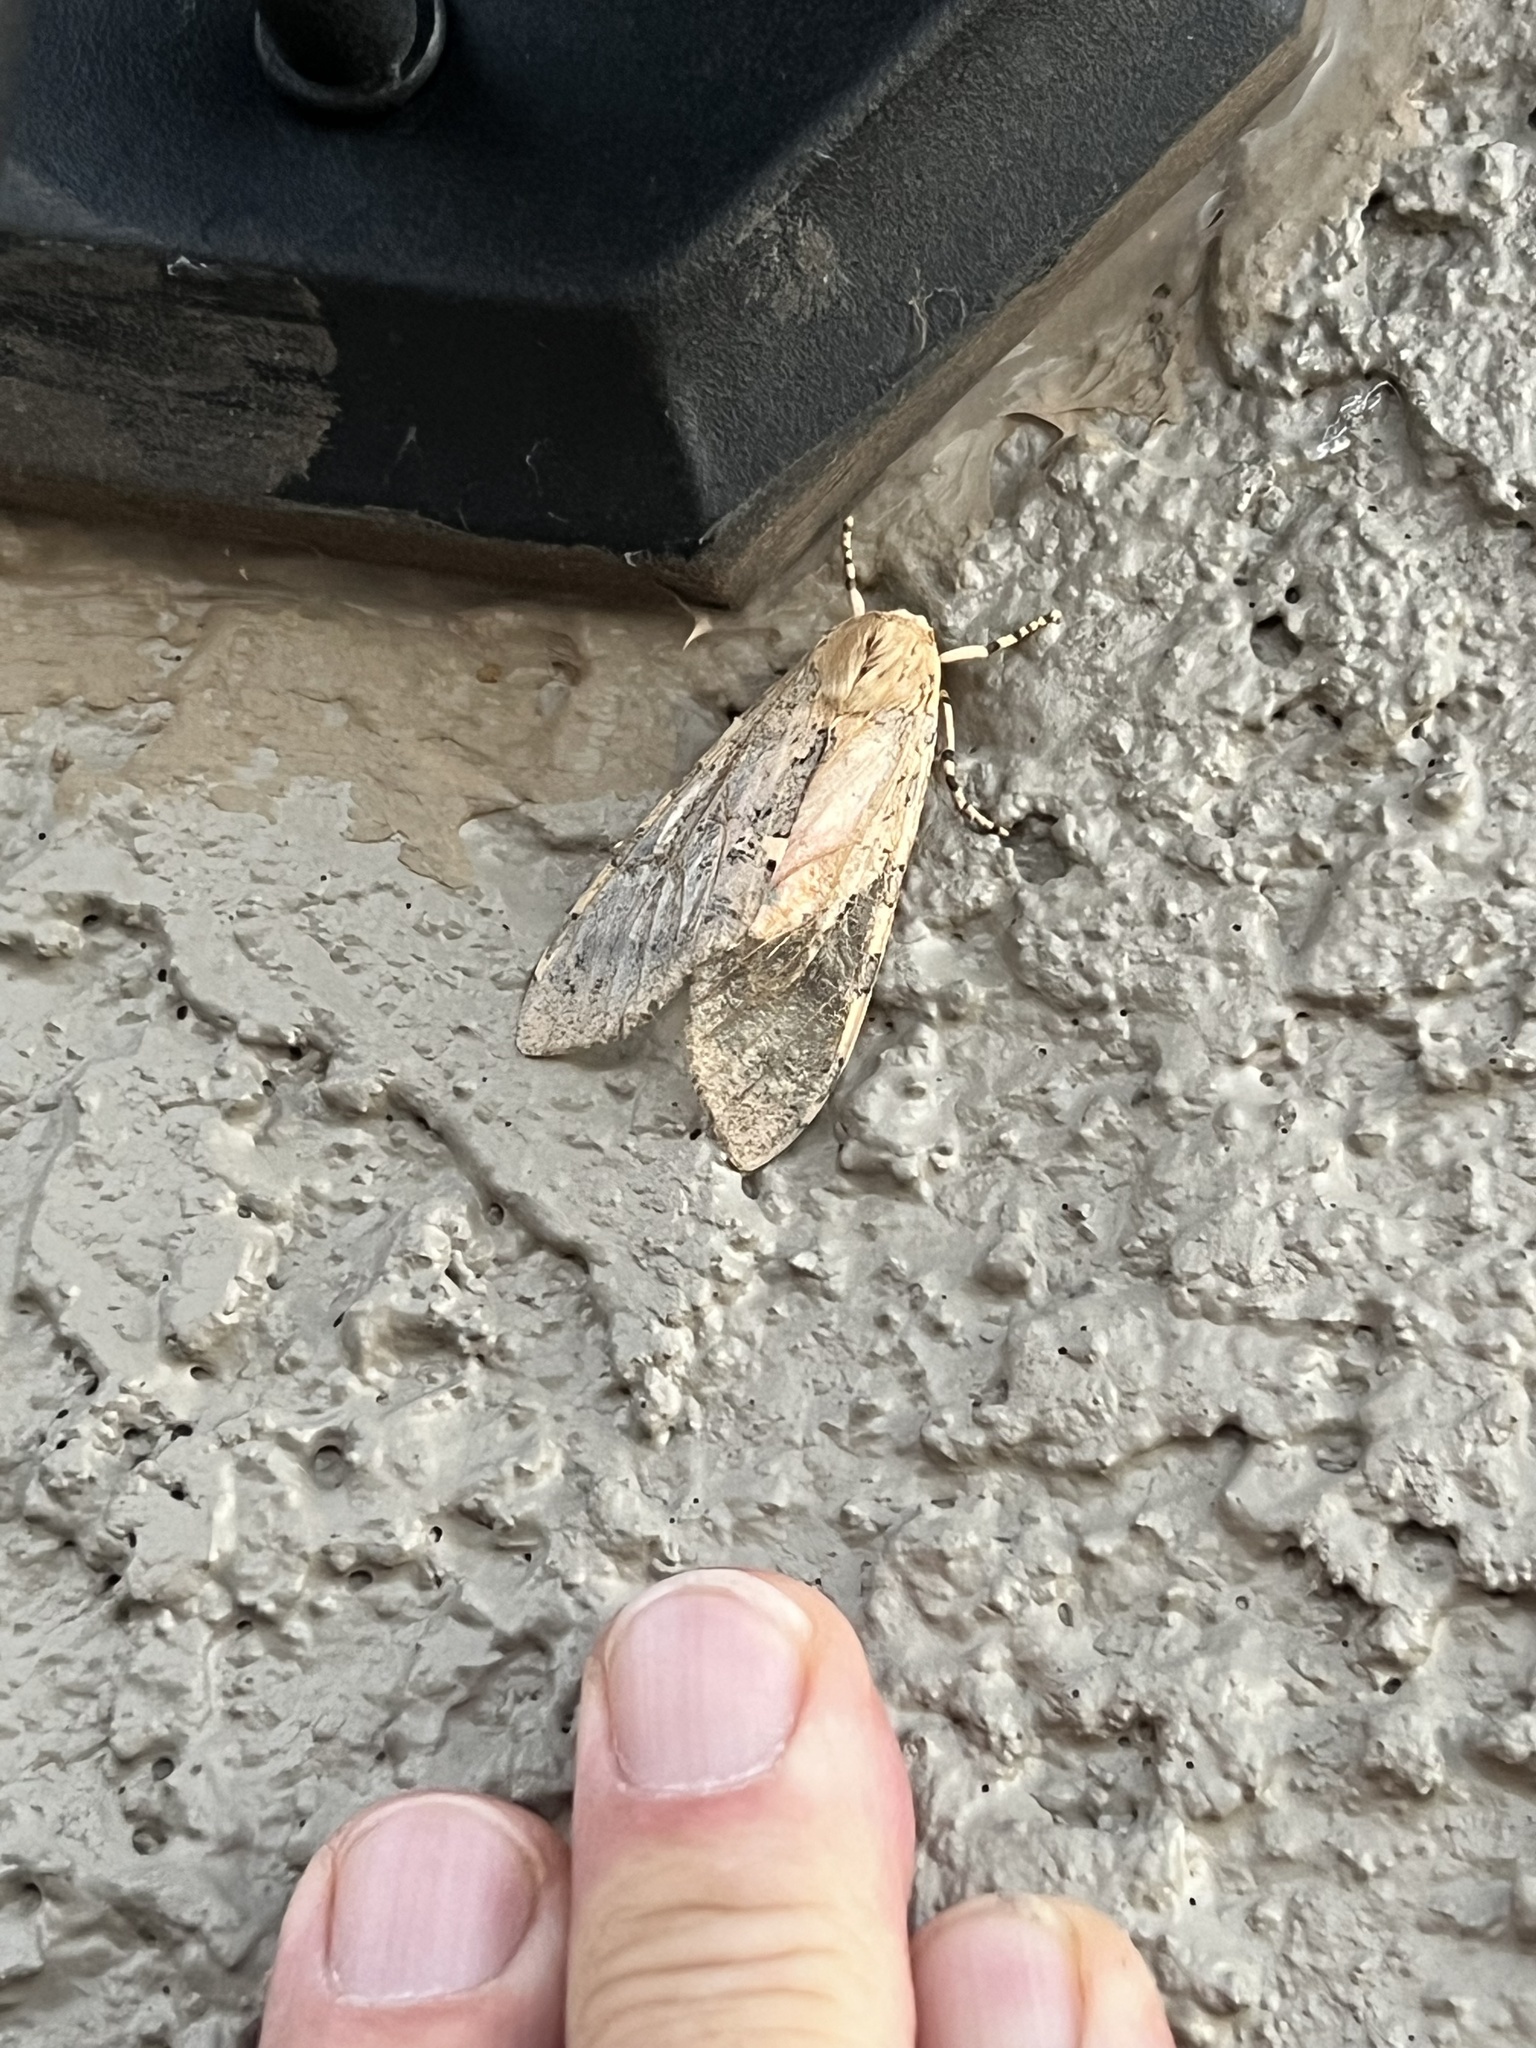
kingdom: Animalia
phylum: Arthropoda
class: Insecta
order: Lepidoptera
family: Erebidae
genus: Hemihyalea
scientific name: Hemihyalea edwardsii
